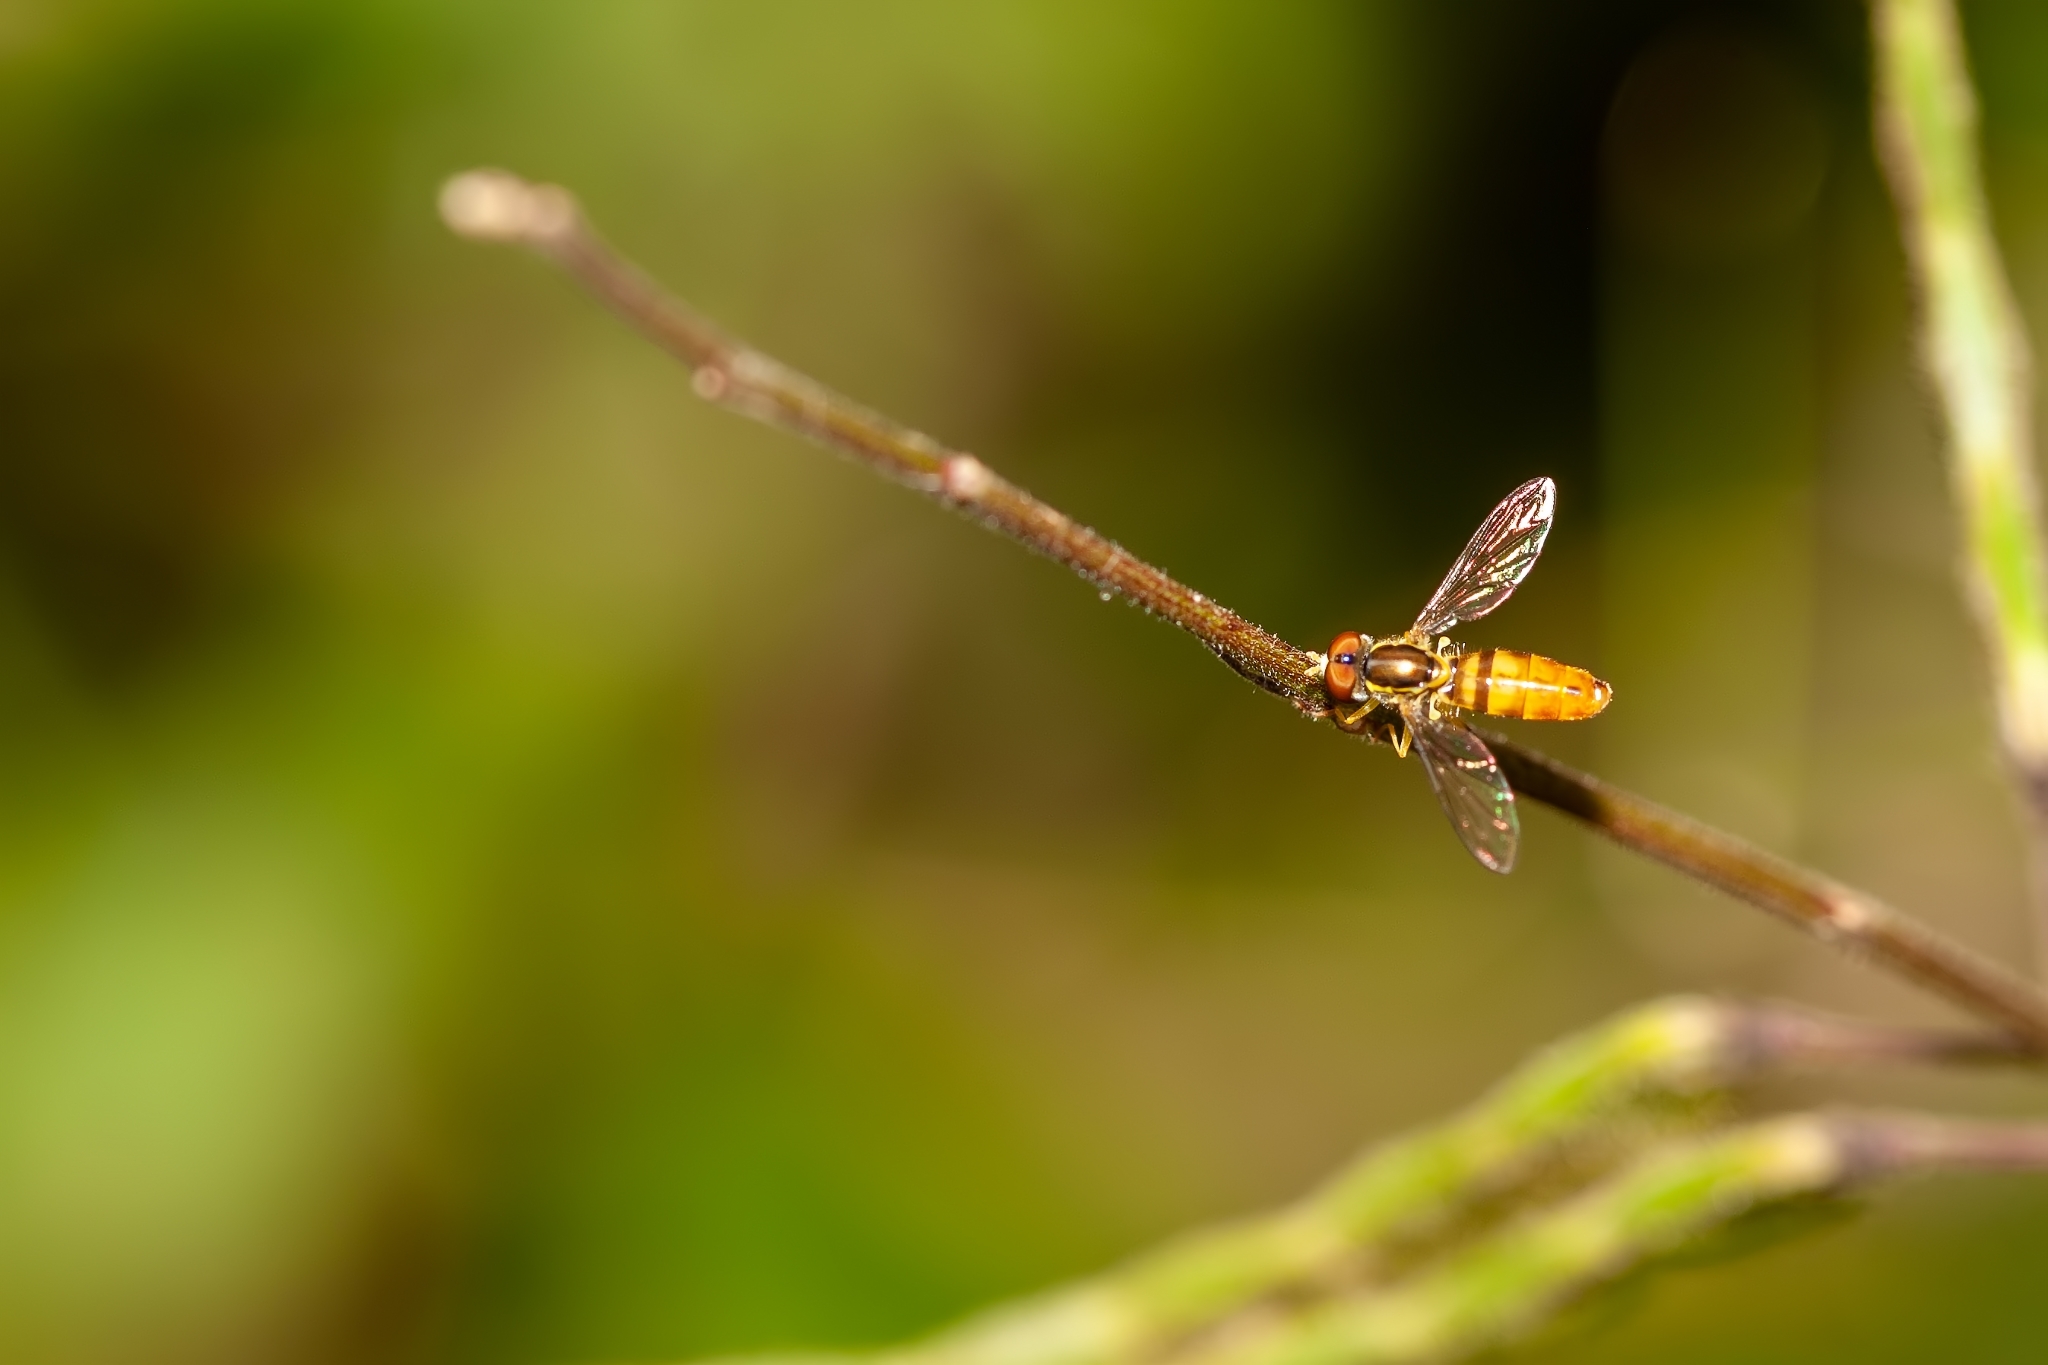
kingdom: Animalia
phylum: Arthropoda
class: Insecta
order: Diptera
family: Syrphidae
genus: Toxomerus
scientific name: Toxomerus floralis
